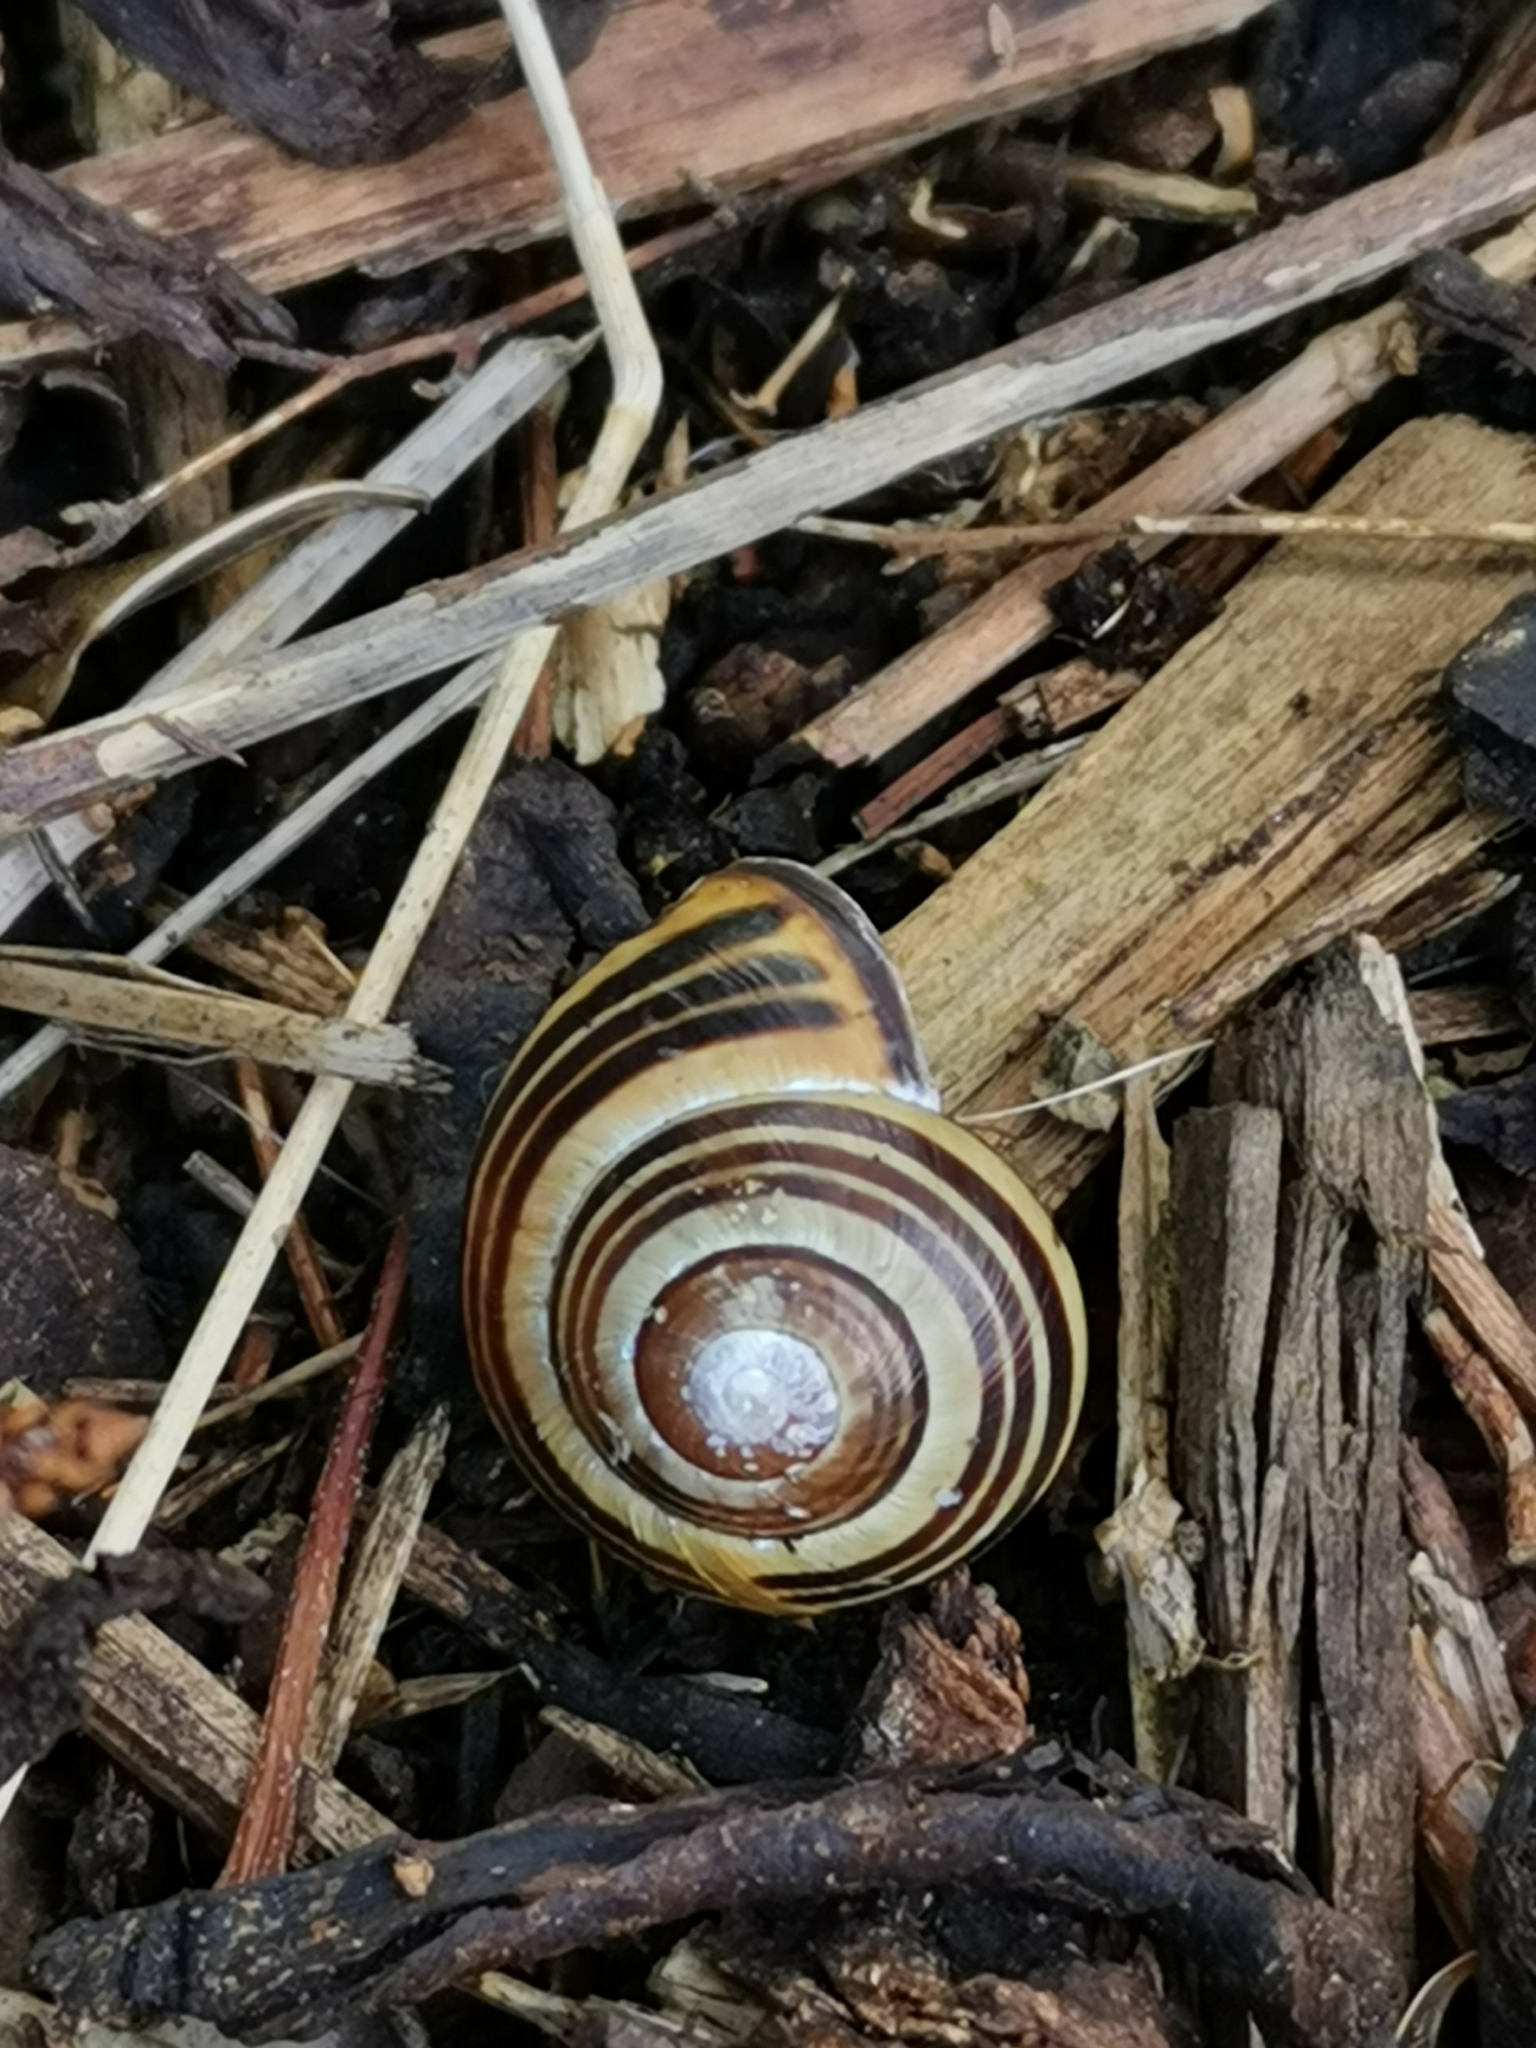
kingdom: Animalia
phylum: Mollusca
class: Gastropoda
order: Stylommatophora
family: Helicidae
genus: Cepaea
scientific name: Cepaea nemoralis
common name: Grovesnail
